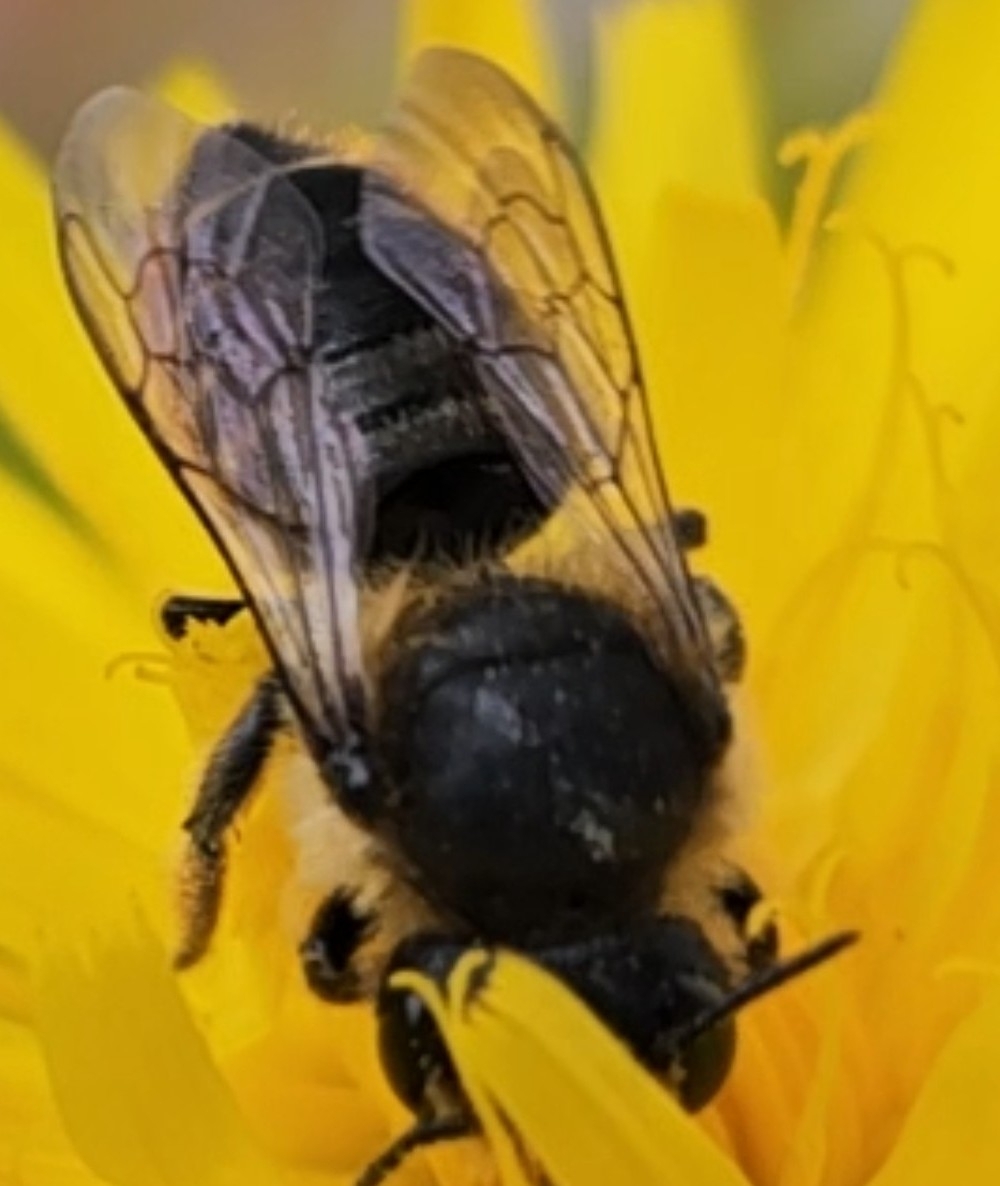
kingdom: Animalia
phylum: Arthropoda
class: Insecta
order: Hymenoptera
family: Megachilidae
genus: Megachile
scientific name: Megachile centuncularis
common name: Patchwork leafcutter bee
